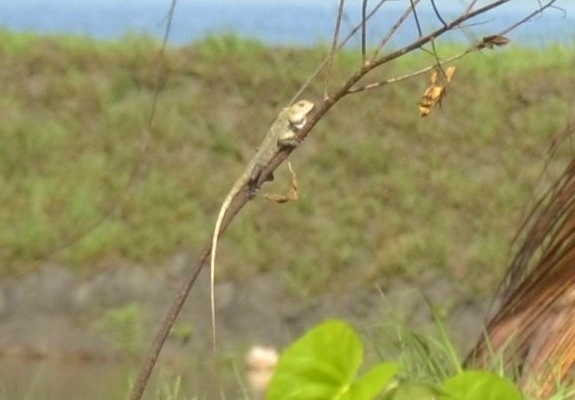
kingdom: Animalia
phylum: Chordata
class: Squamata
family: Agamidae
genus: Calotes
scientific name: Calotes versicolor
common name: Oriental garden lizard
